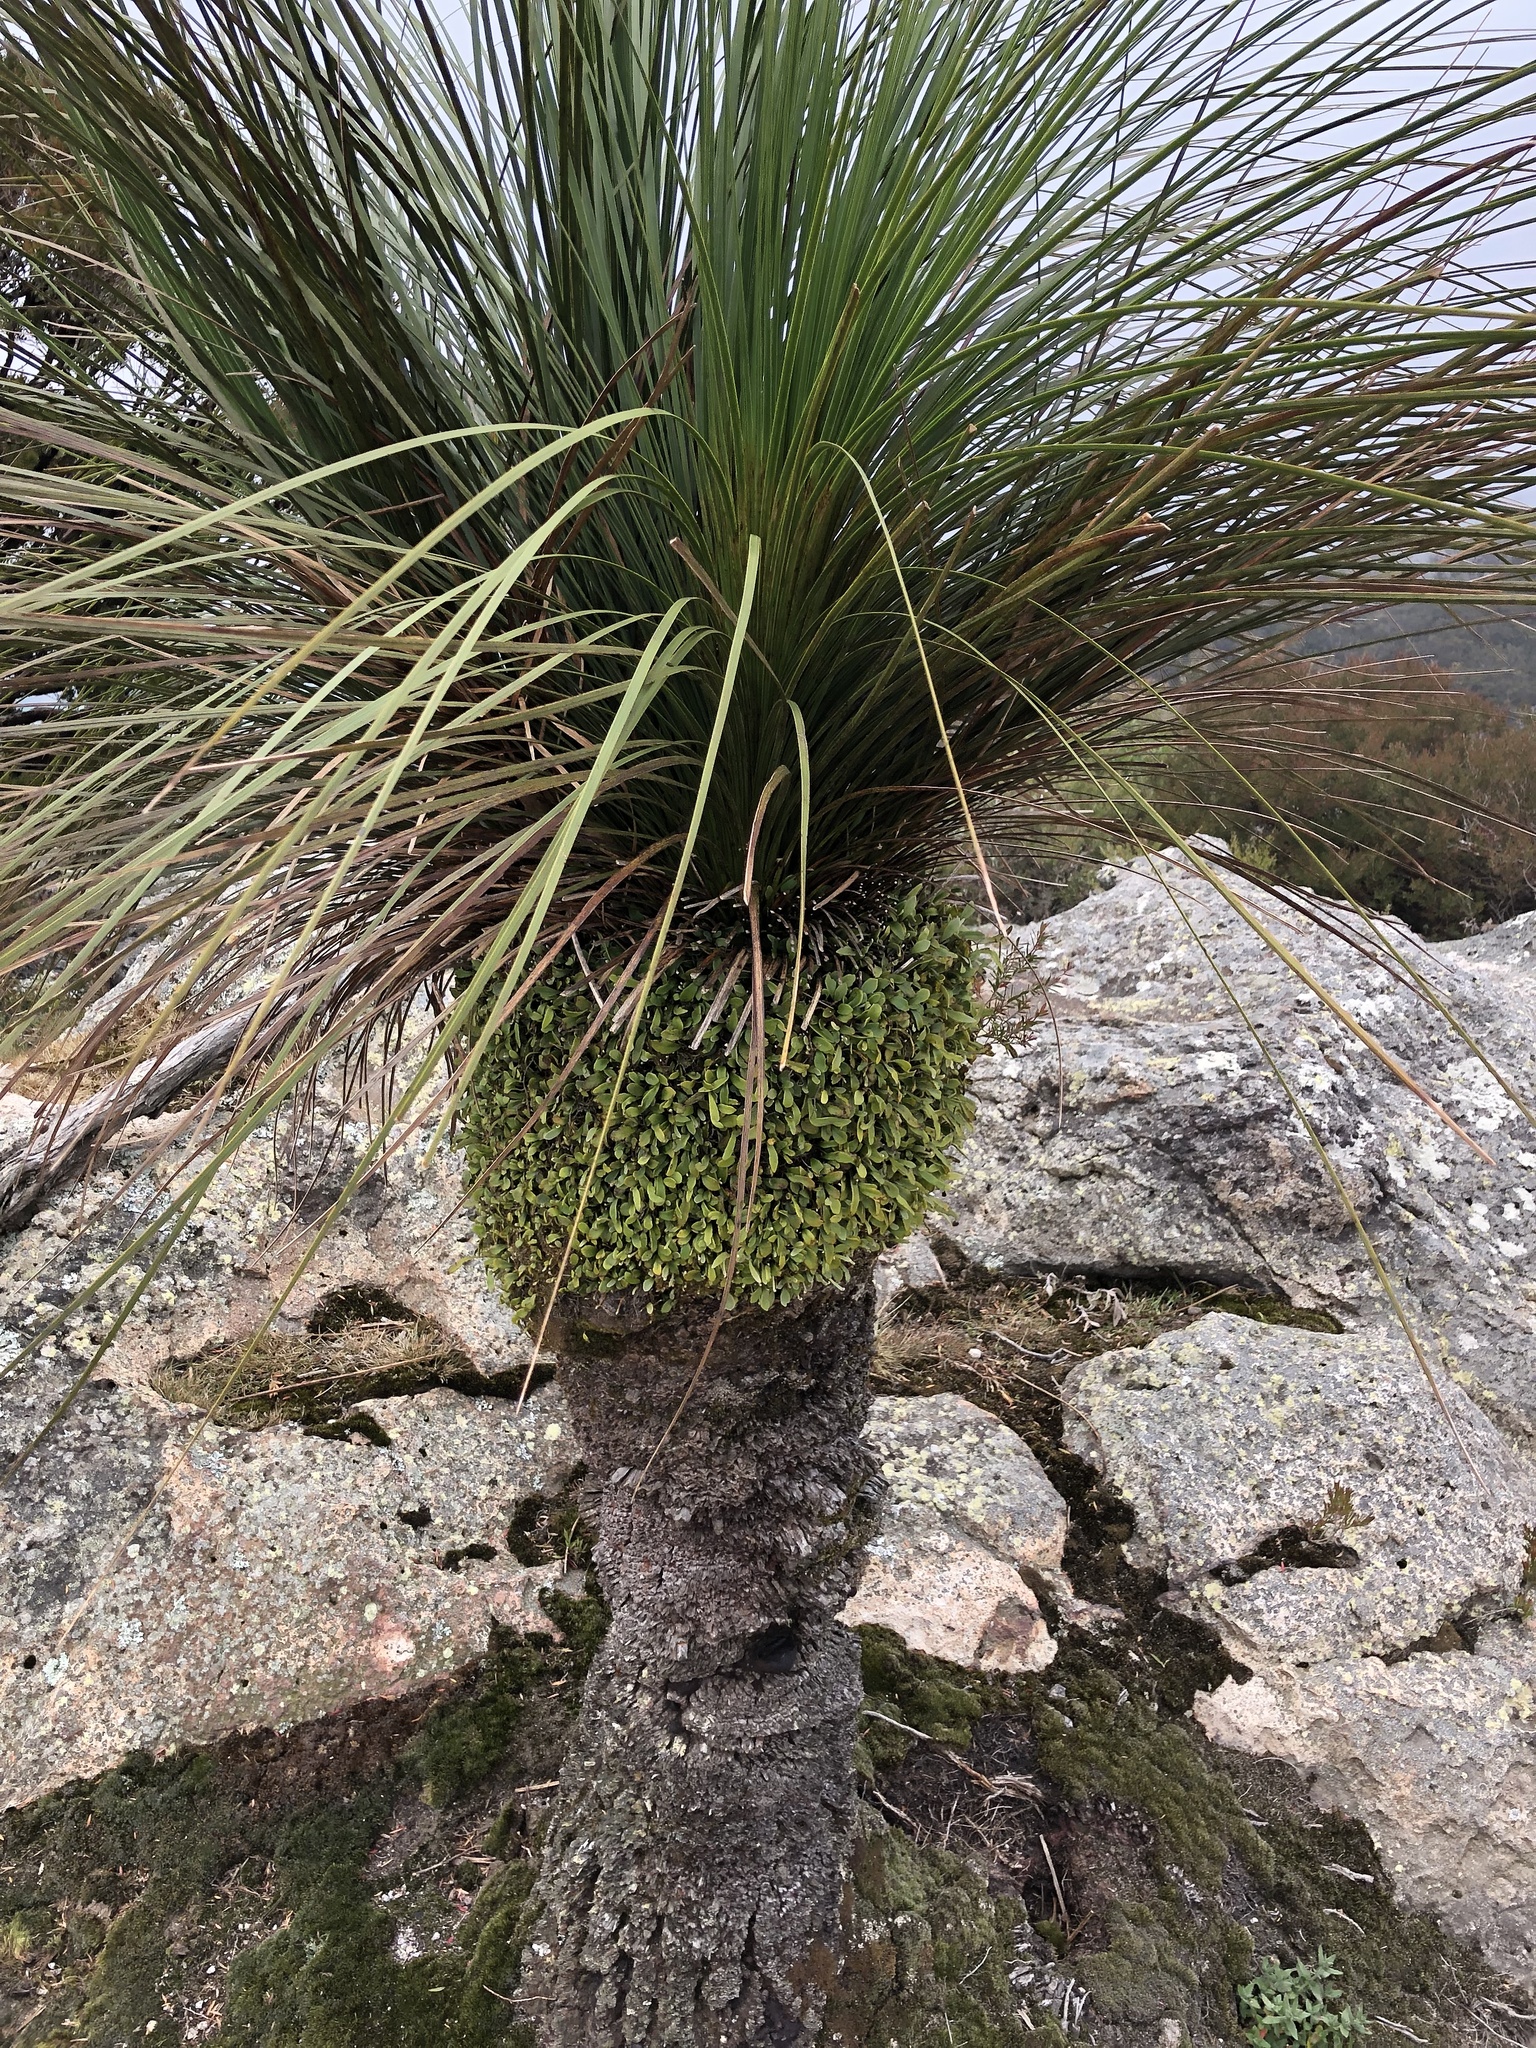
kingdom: Plantae
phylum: Tracheophyta
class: Liliopsida
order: Asparagales
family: Asphodelaceae
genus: Xanthorrhoea
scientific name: Xanthorrhoea latifolia
